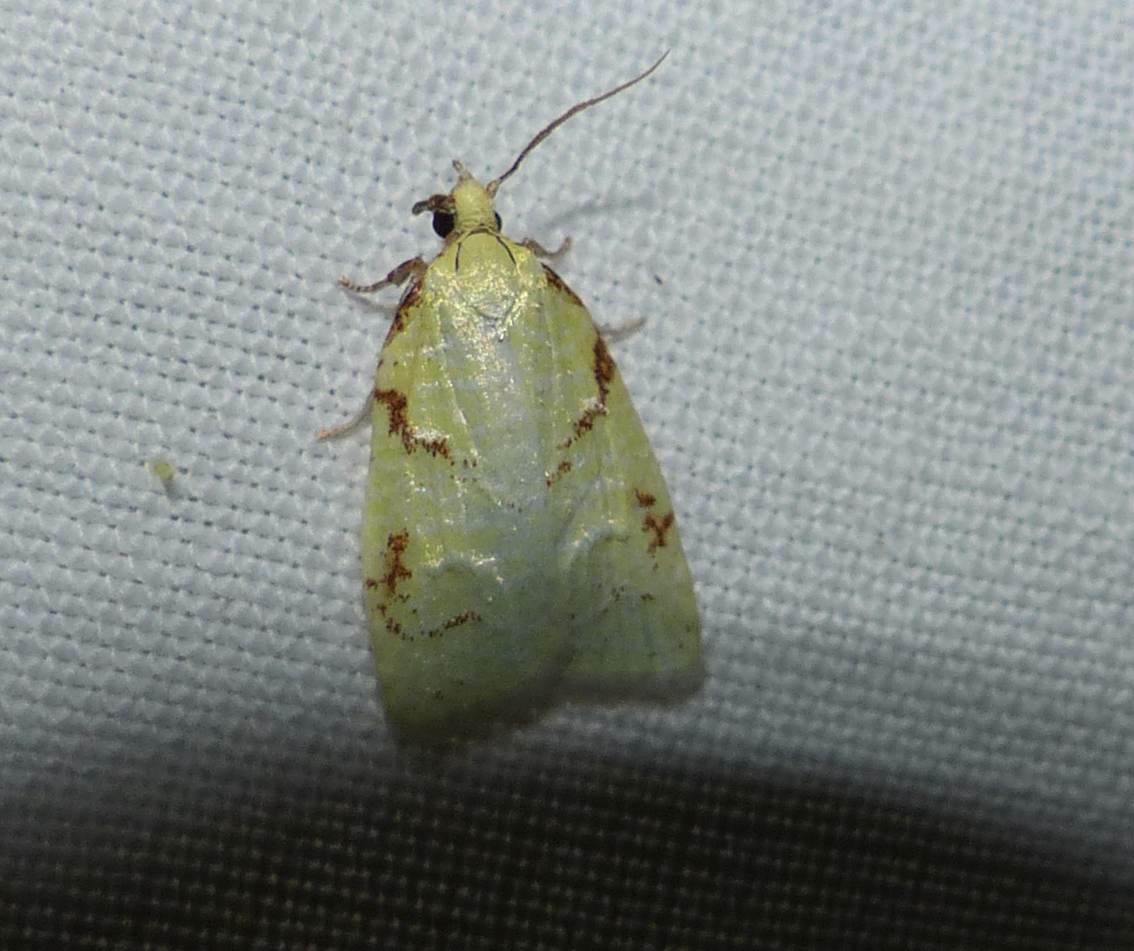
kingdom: Animalia
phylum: Arthropoda
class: Insecta
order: Lepidoptera
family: Tortricidae
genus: Cenopis
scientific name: Cenopis pettitana
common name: Maple-basswood leafroller moth
